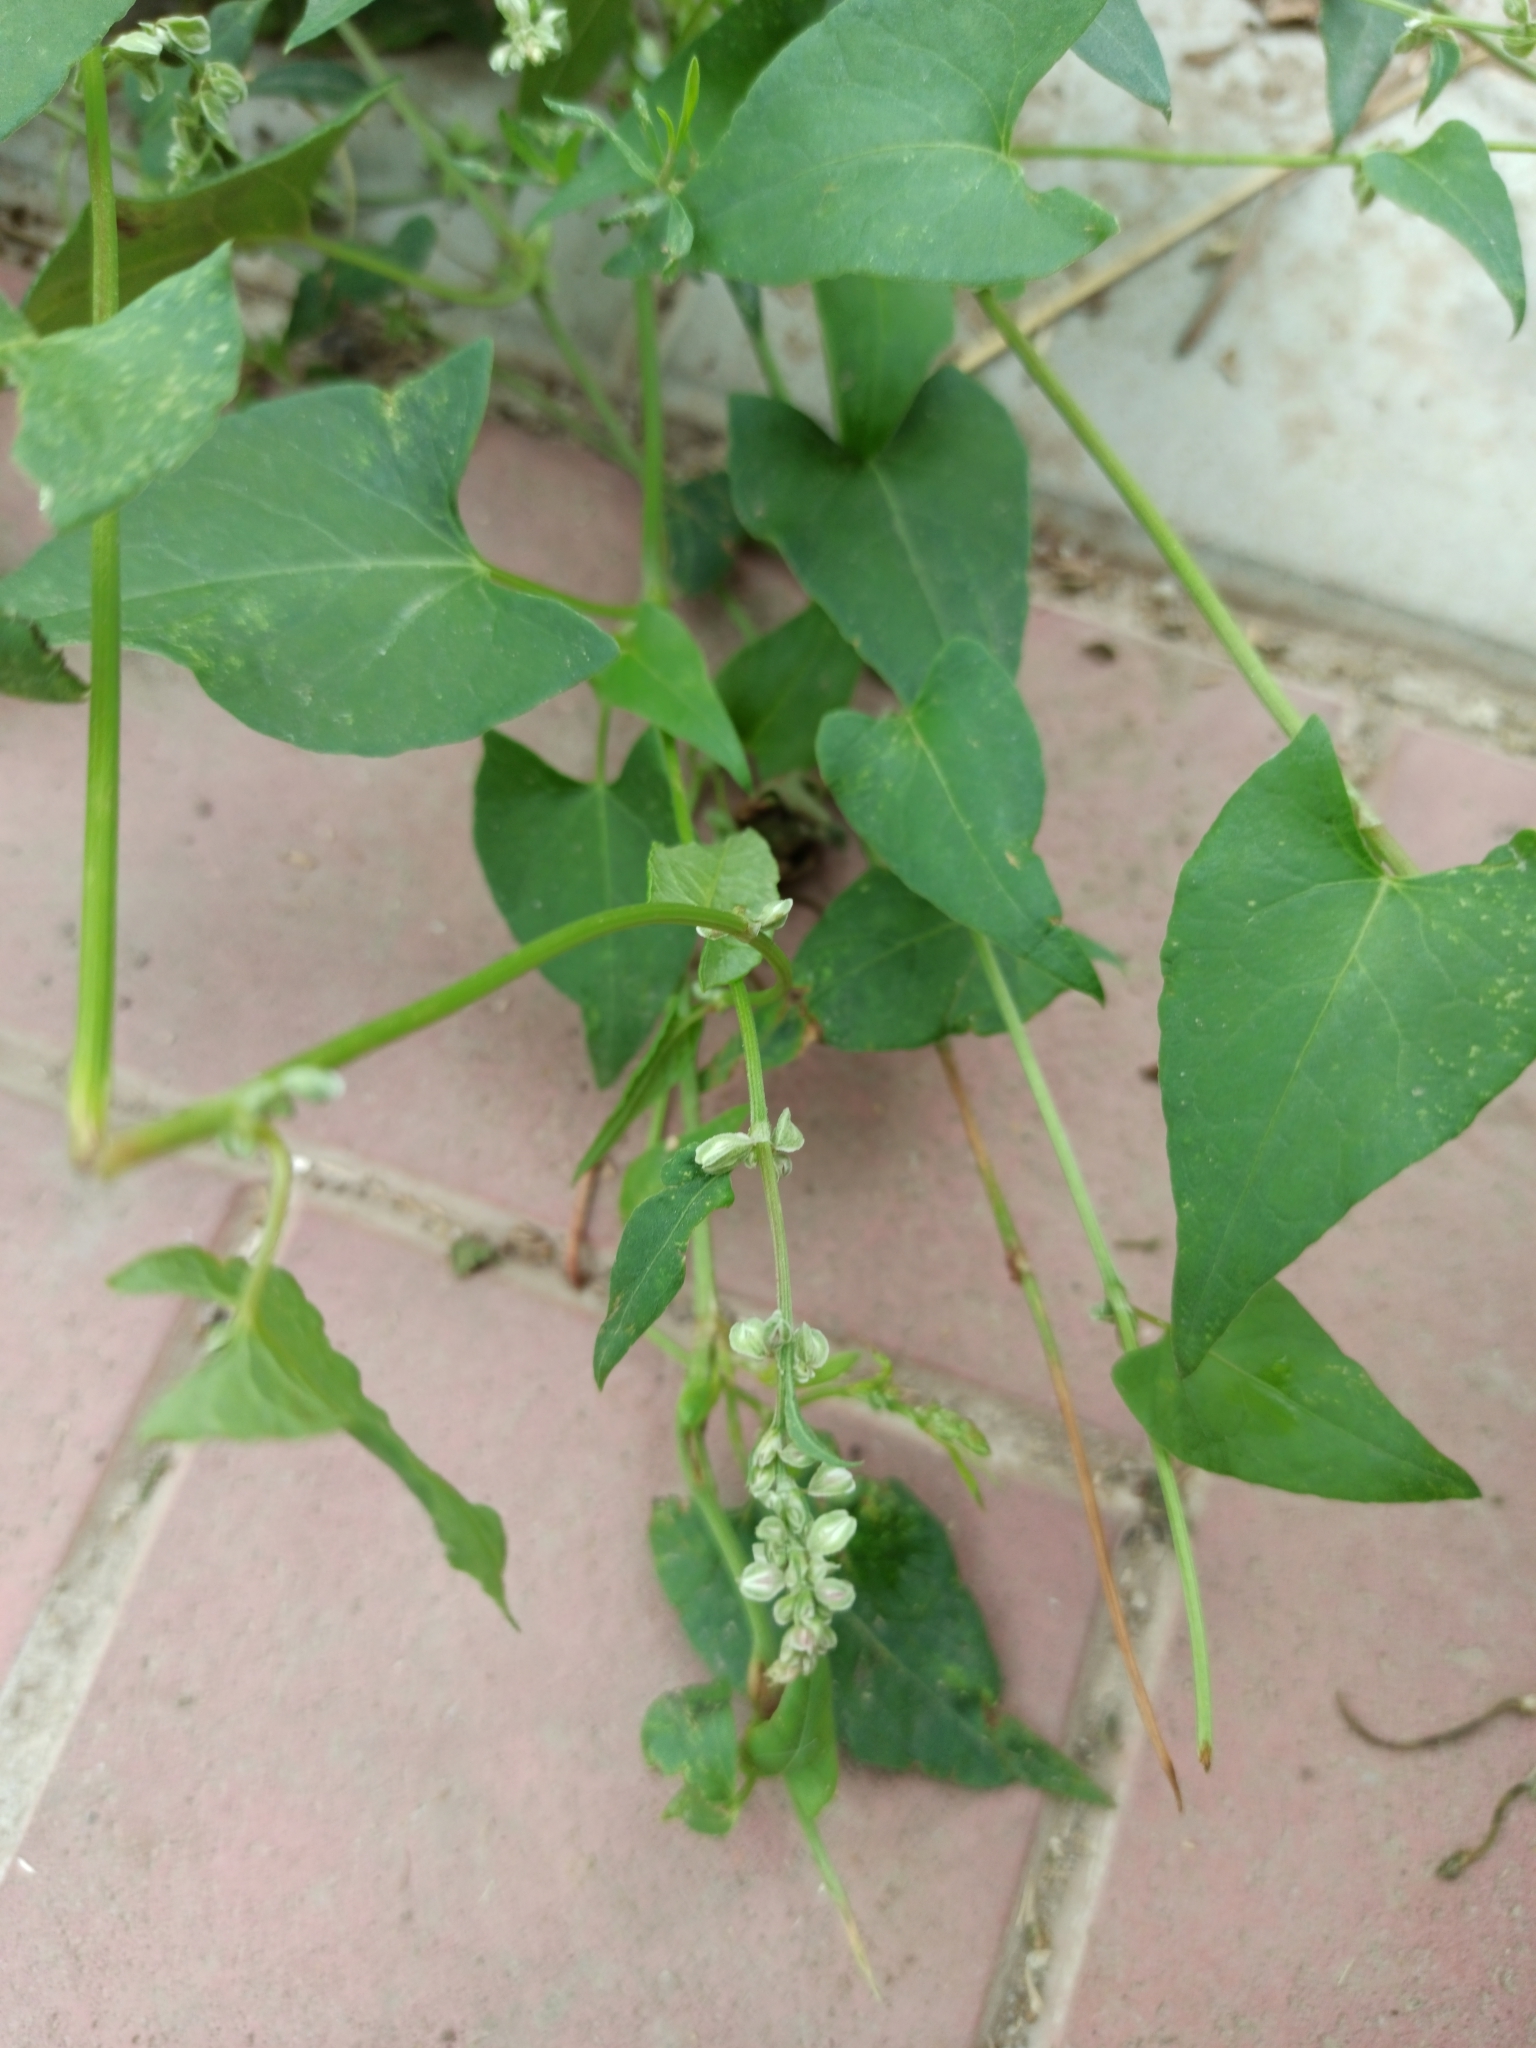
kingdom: Plantae
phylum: Tracheophyta
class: Magnoliopsida
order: Caryophyllales
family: Polygonaceae
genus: Fallopia
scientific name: Fallopia convolvulus
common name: Black bindweed
